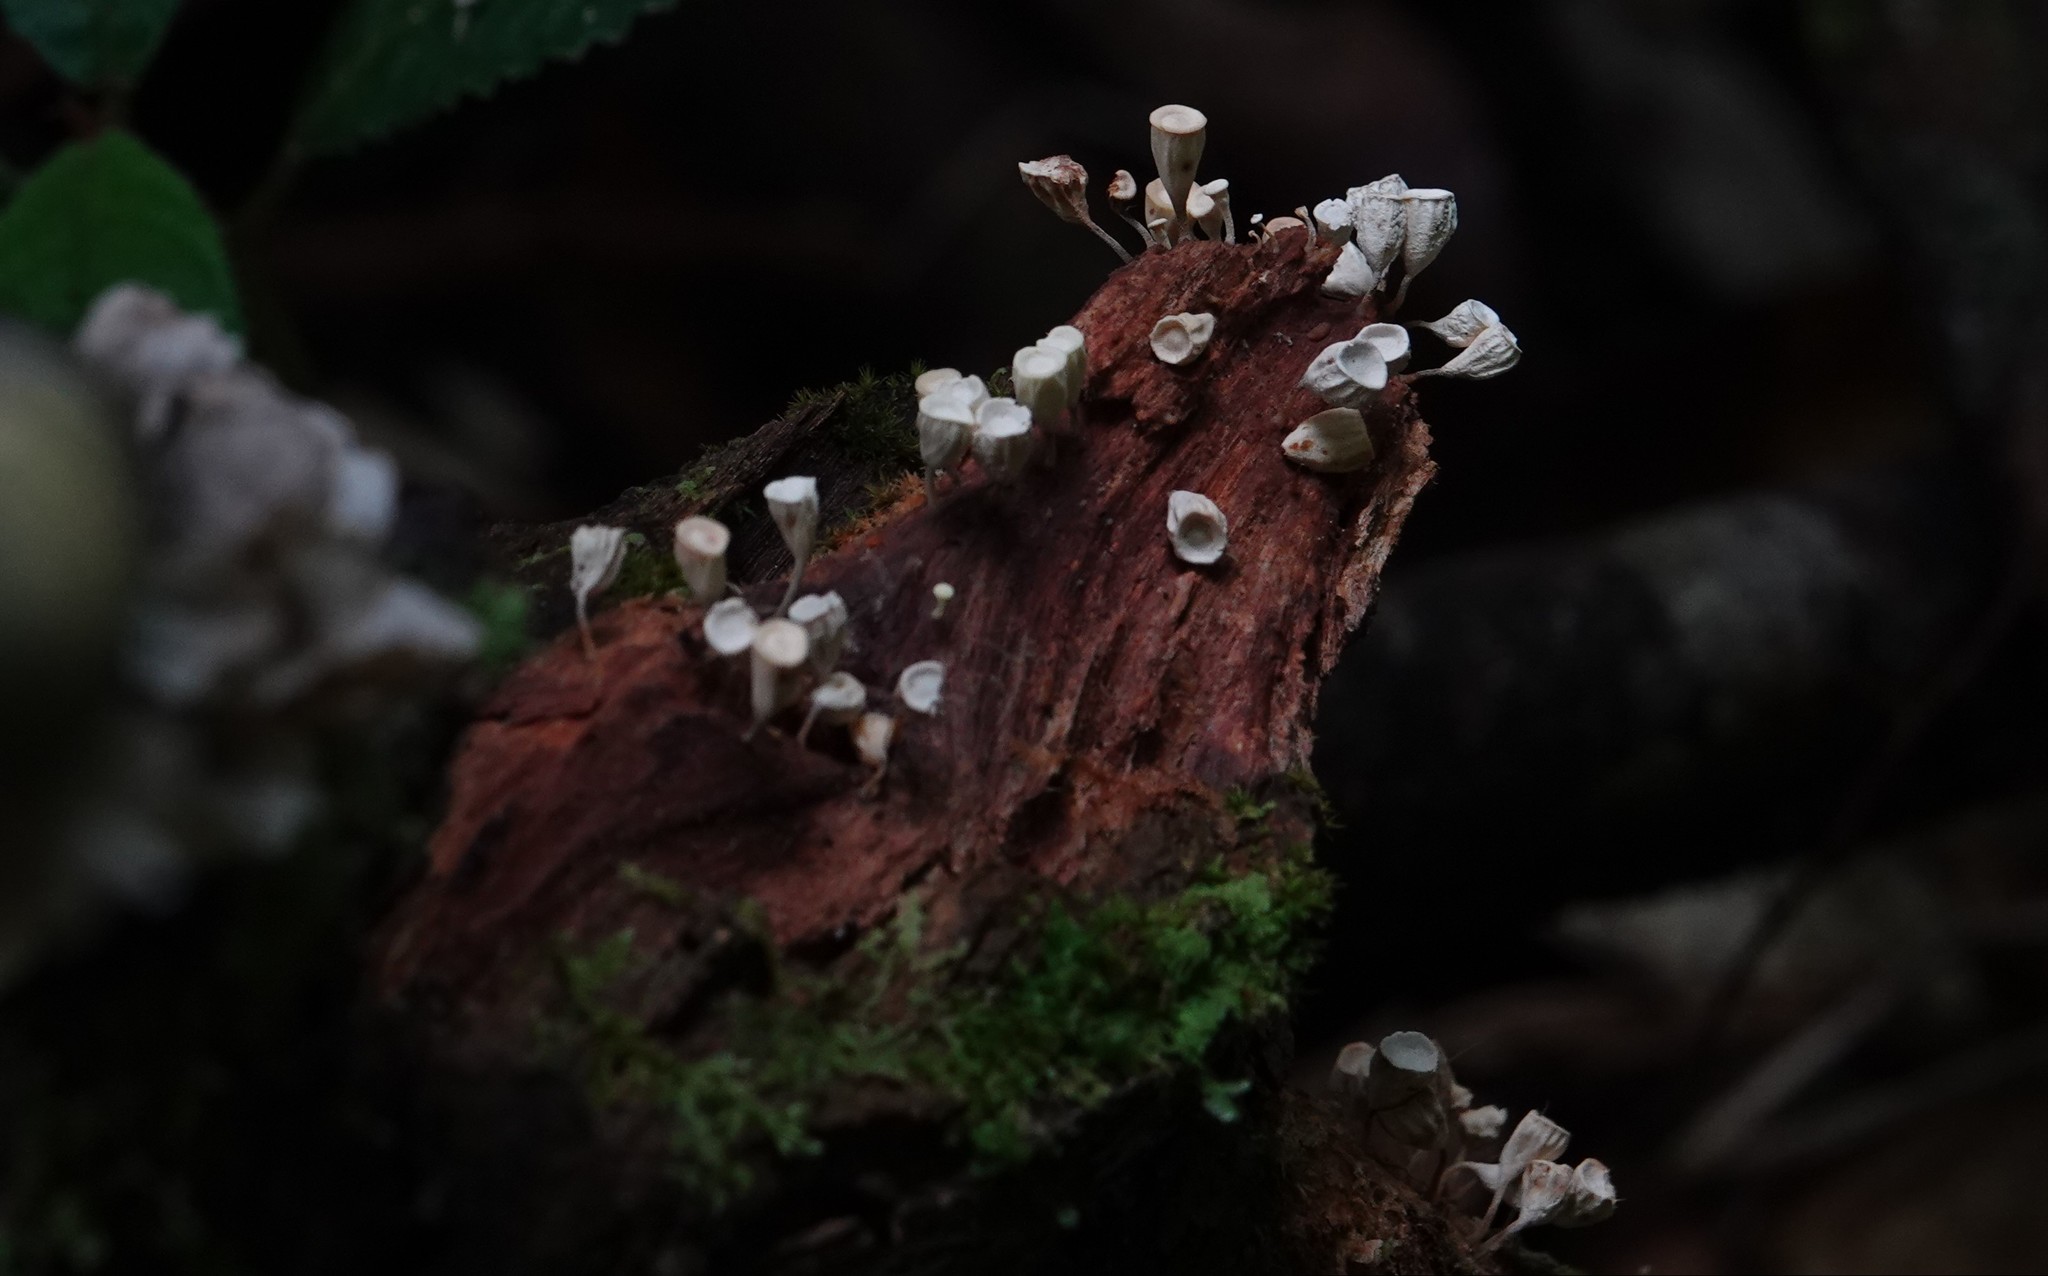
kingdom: Fungi
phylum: Basidiomycota
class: Agaricomycetes
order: Agaricales
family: Omphalotaceae
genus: Gymnopus
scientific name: Gymnopus montagnei
